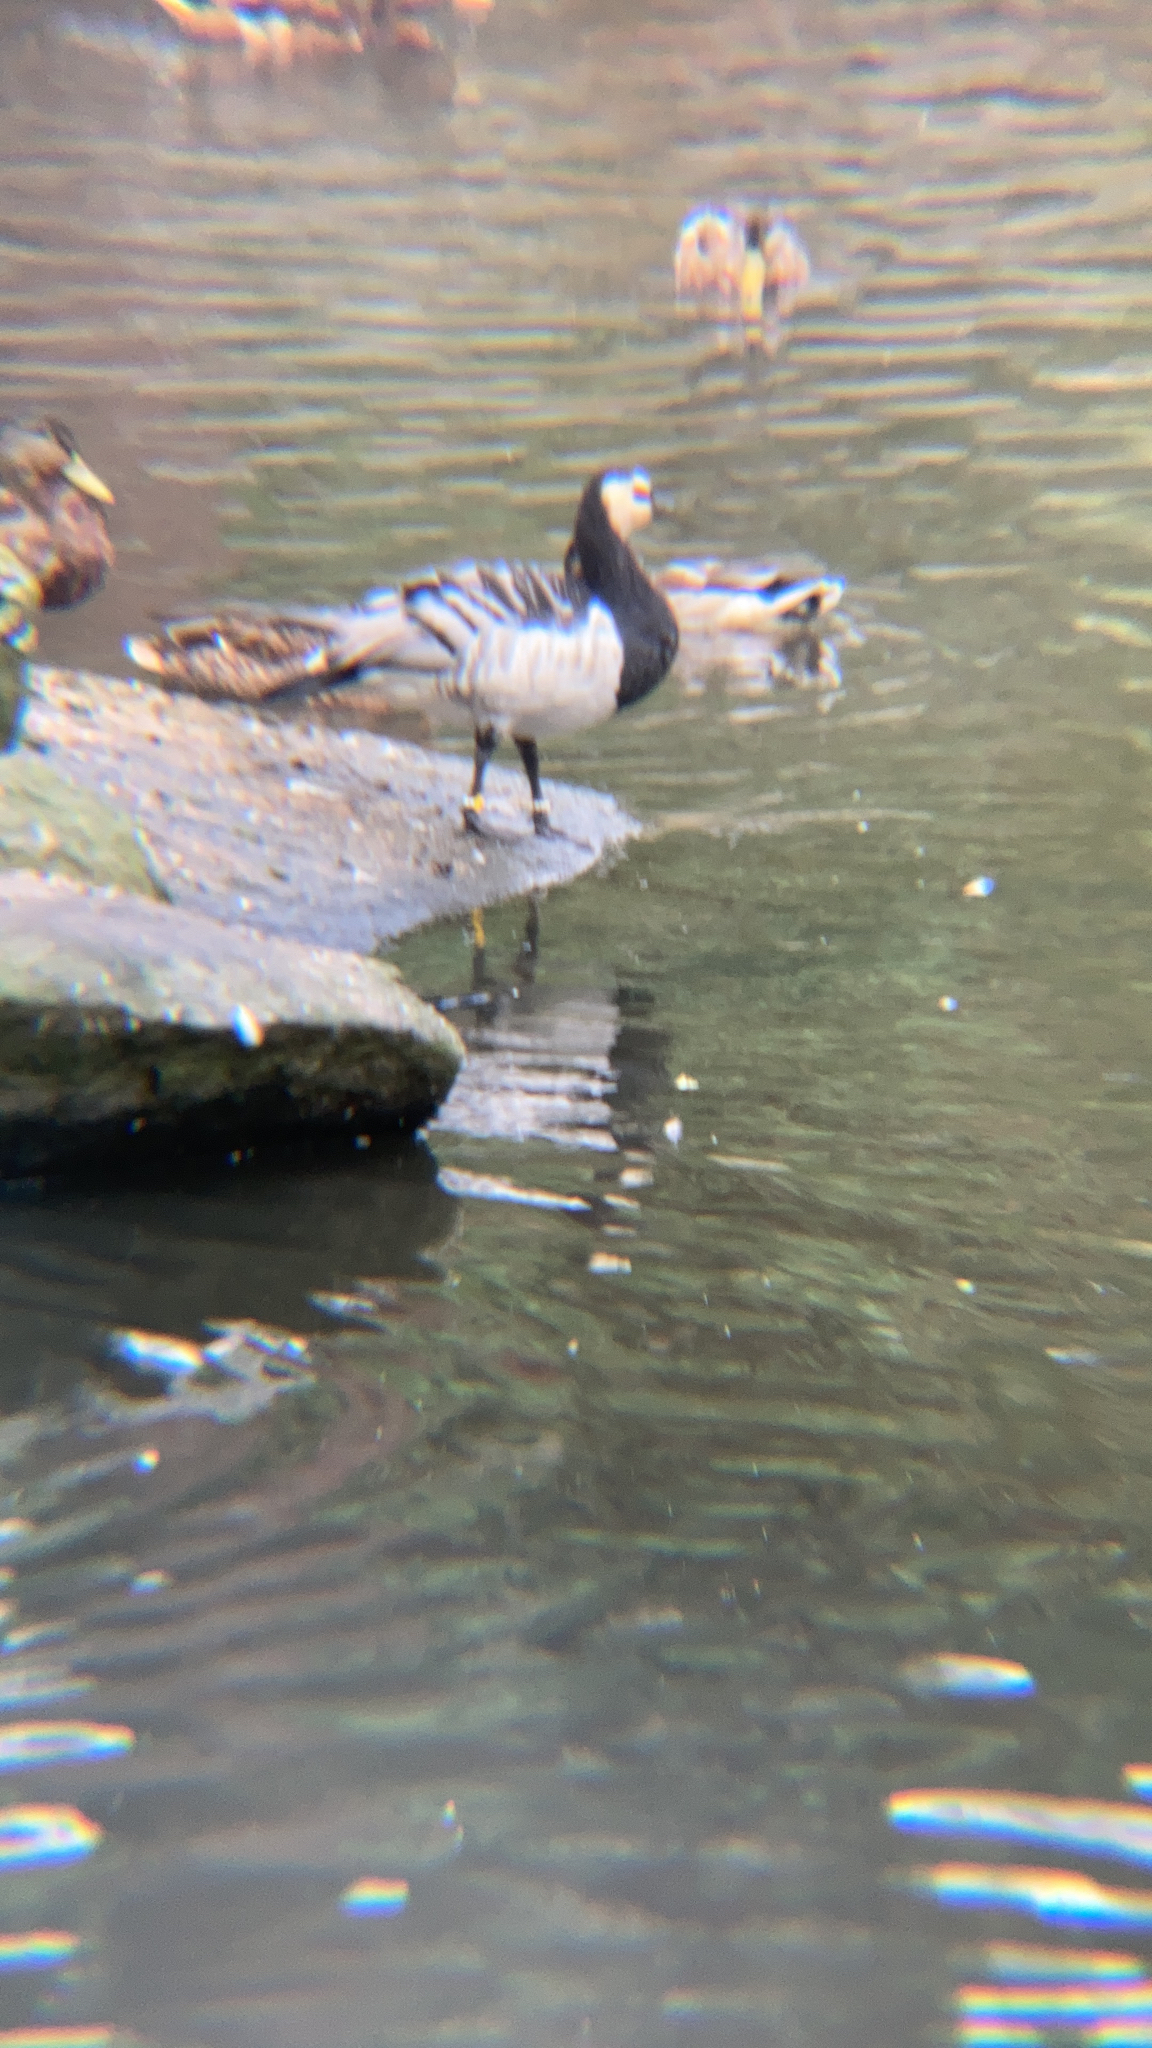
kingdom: Animalia
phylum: Chordata
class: Aves
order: Anseriformes
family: Anatidae
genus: Branta
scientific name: Branta leucopsis
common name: Barnacle goose
